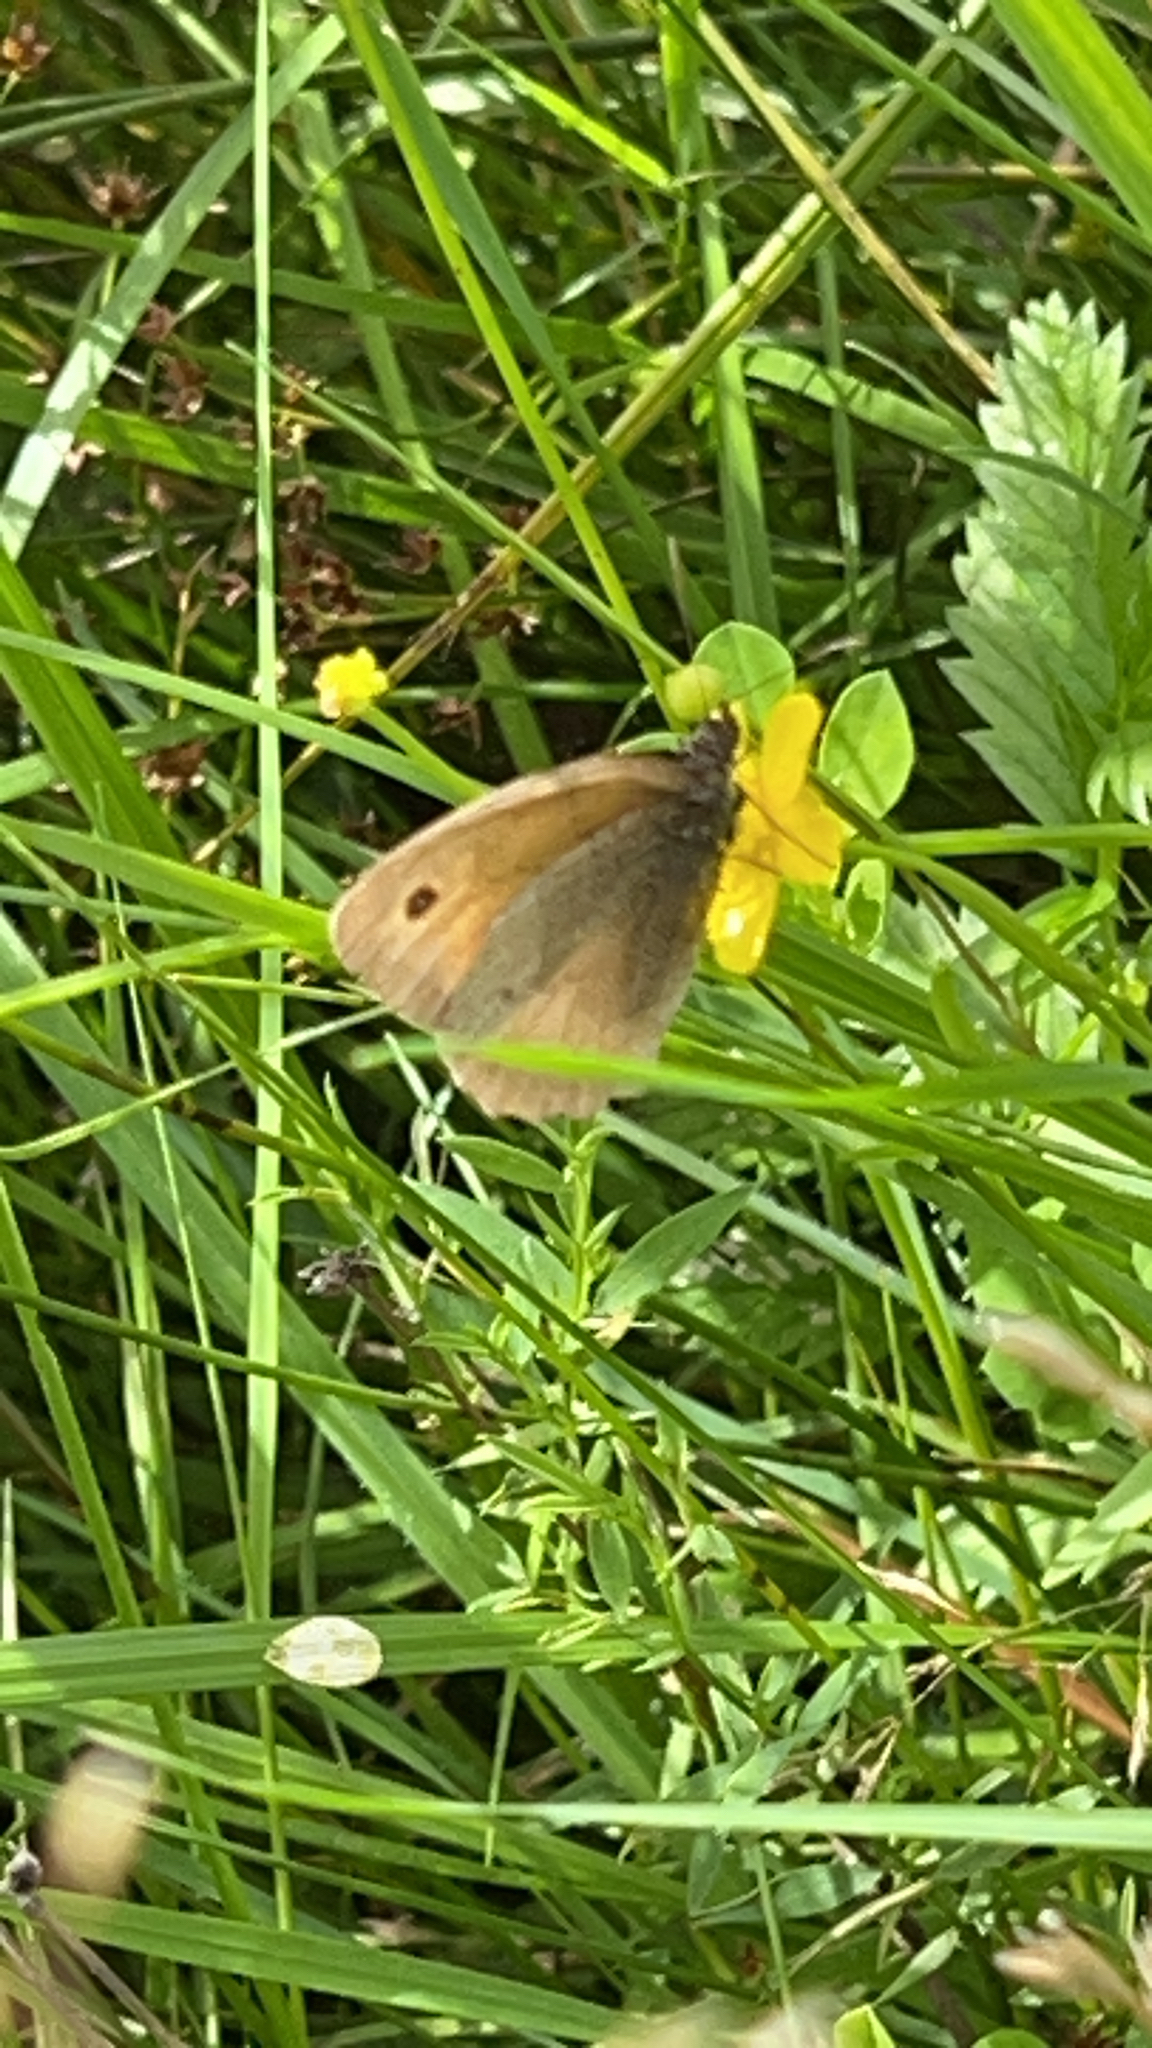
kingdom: Animalia
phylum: Arthropoda
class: Insecta
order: Lepidoptera
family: Nymphalidae
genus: Maniola
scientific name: Maniola jurtina
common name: Meadow brown
